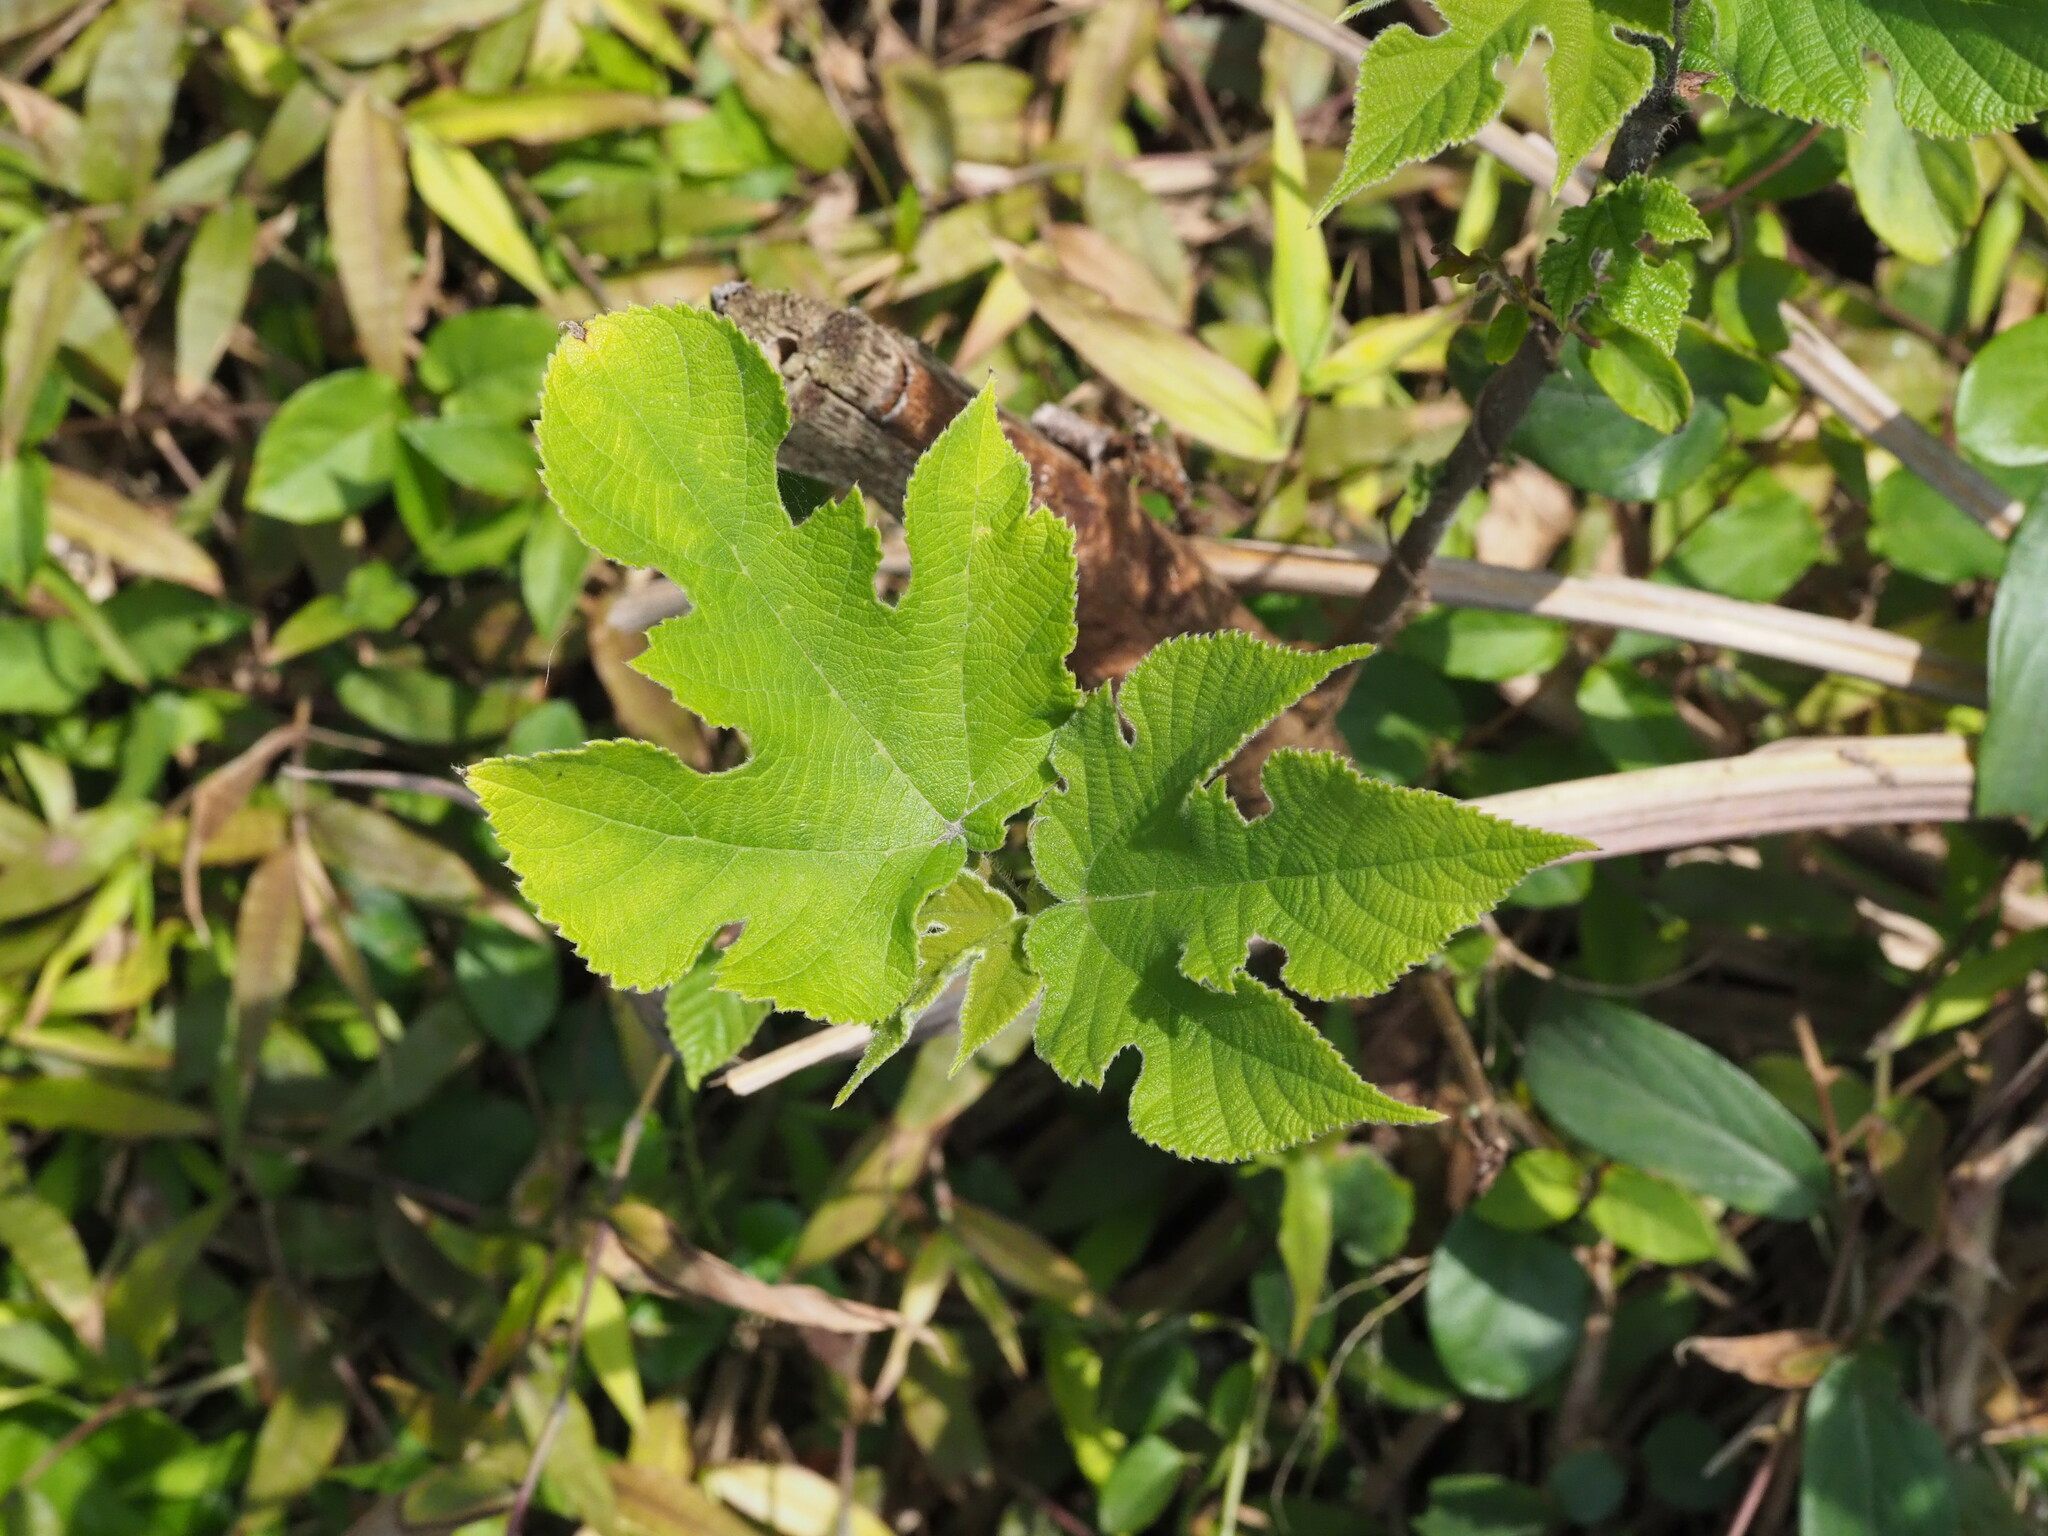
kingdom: Plantae
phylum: Tracheophyta
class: Magnoliopsida
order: Rosales
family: Moraceae
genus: Broussonetia
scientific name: Broussonetia papyrifera
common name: Paper mulberry
